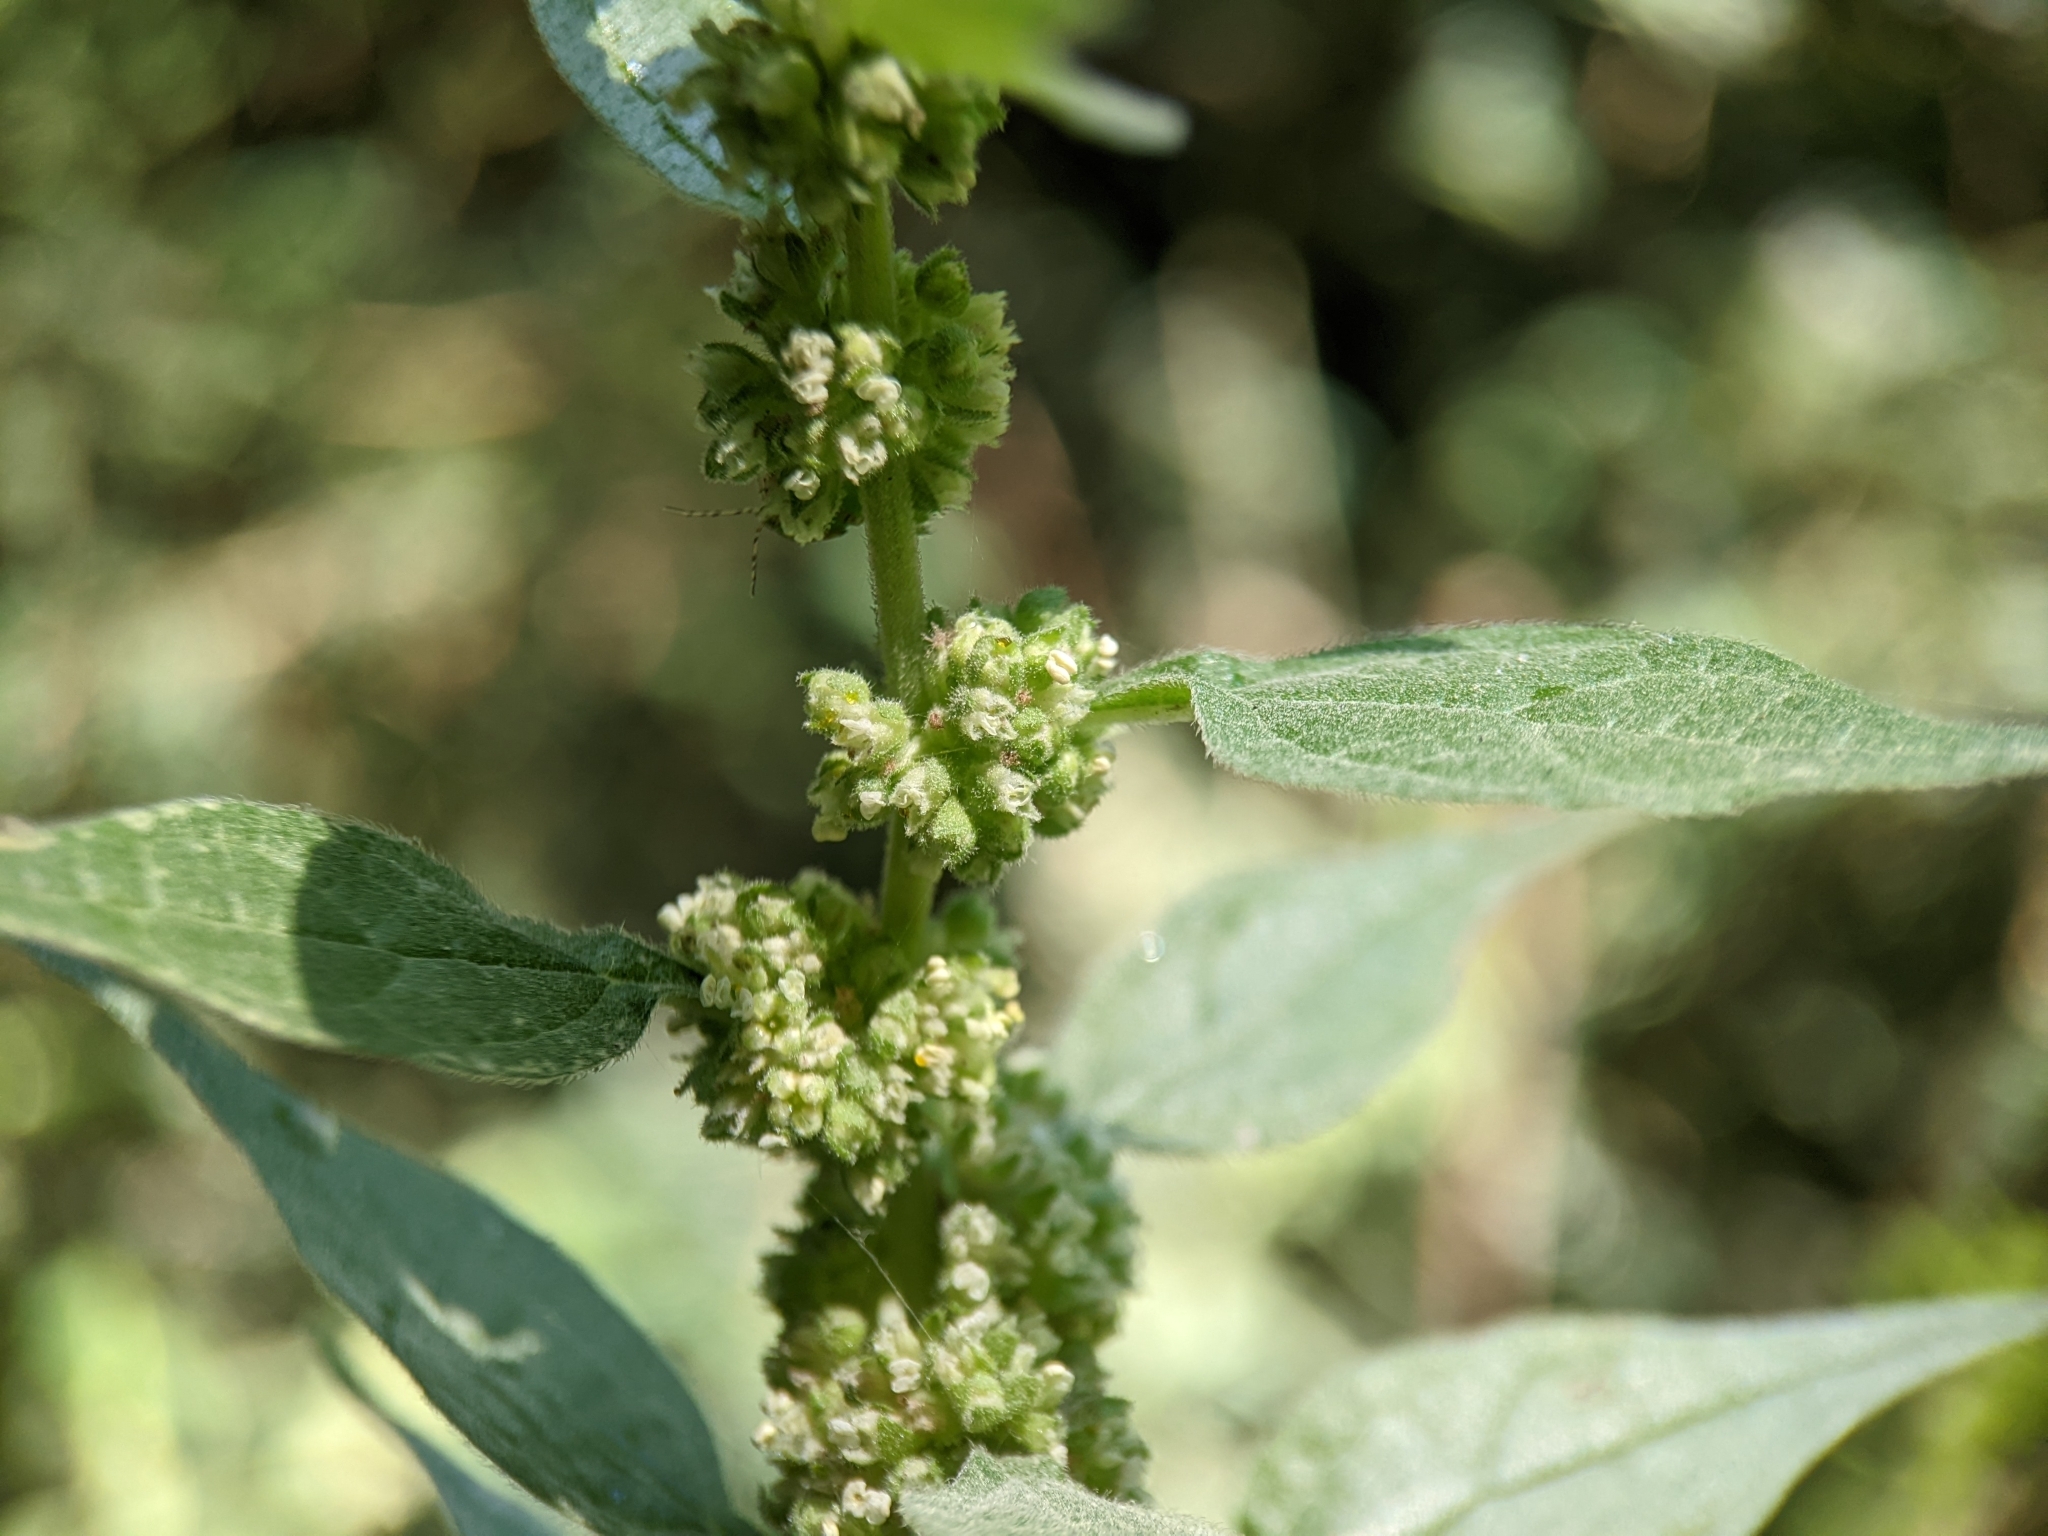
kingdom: Plantae
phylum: Tracheophyta
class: Magnoliopsida
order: Rosales
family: Urticaceae
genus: Parietaria
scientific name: Parietaria officinalis
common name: Eastern pellitory-of-the-wall
